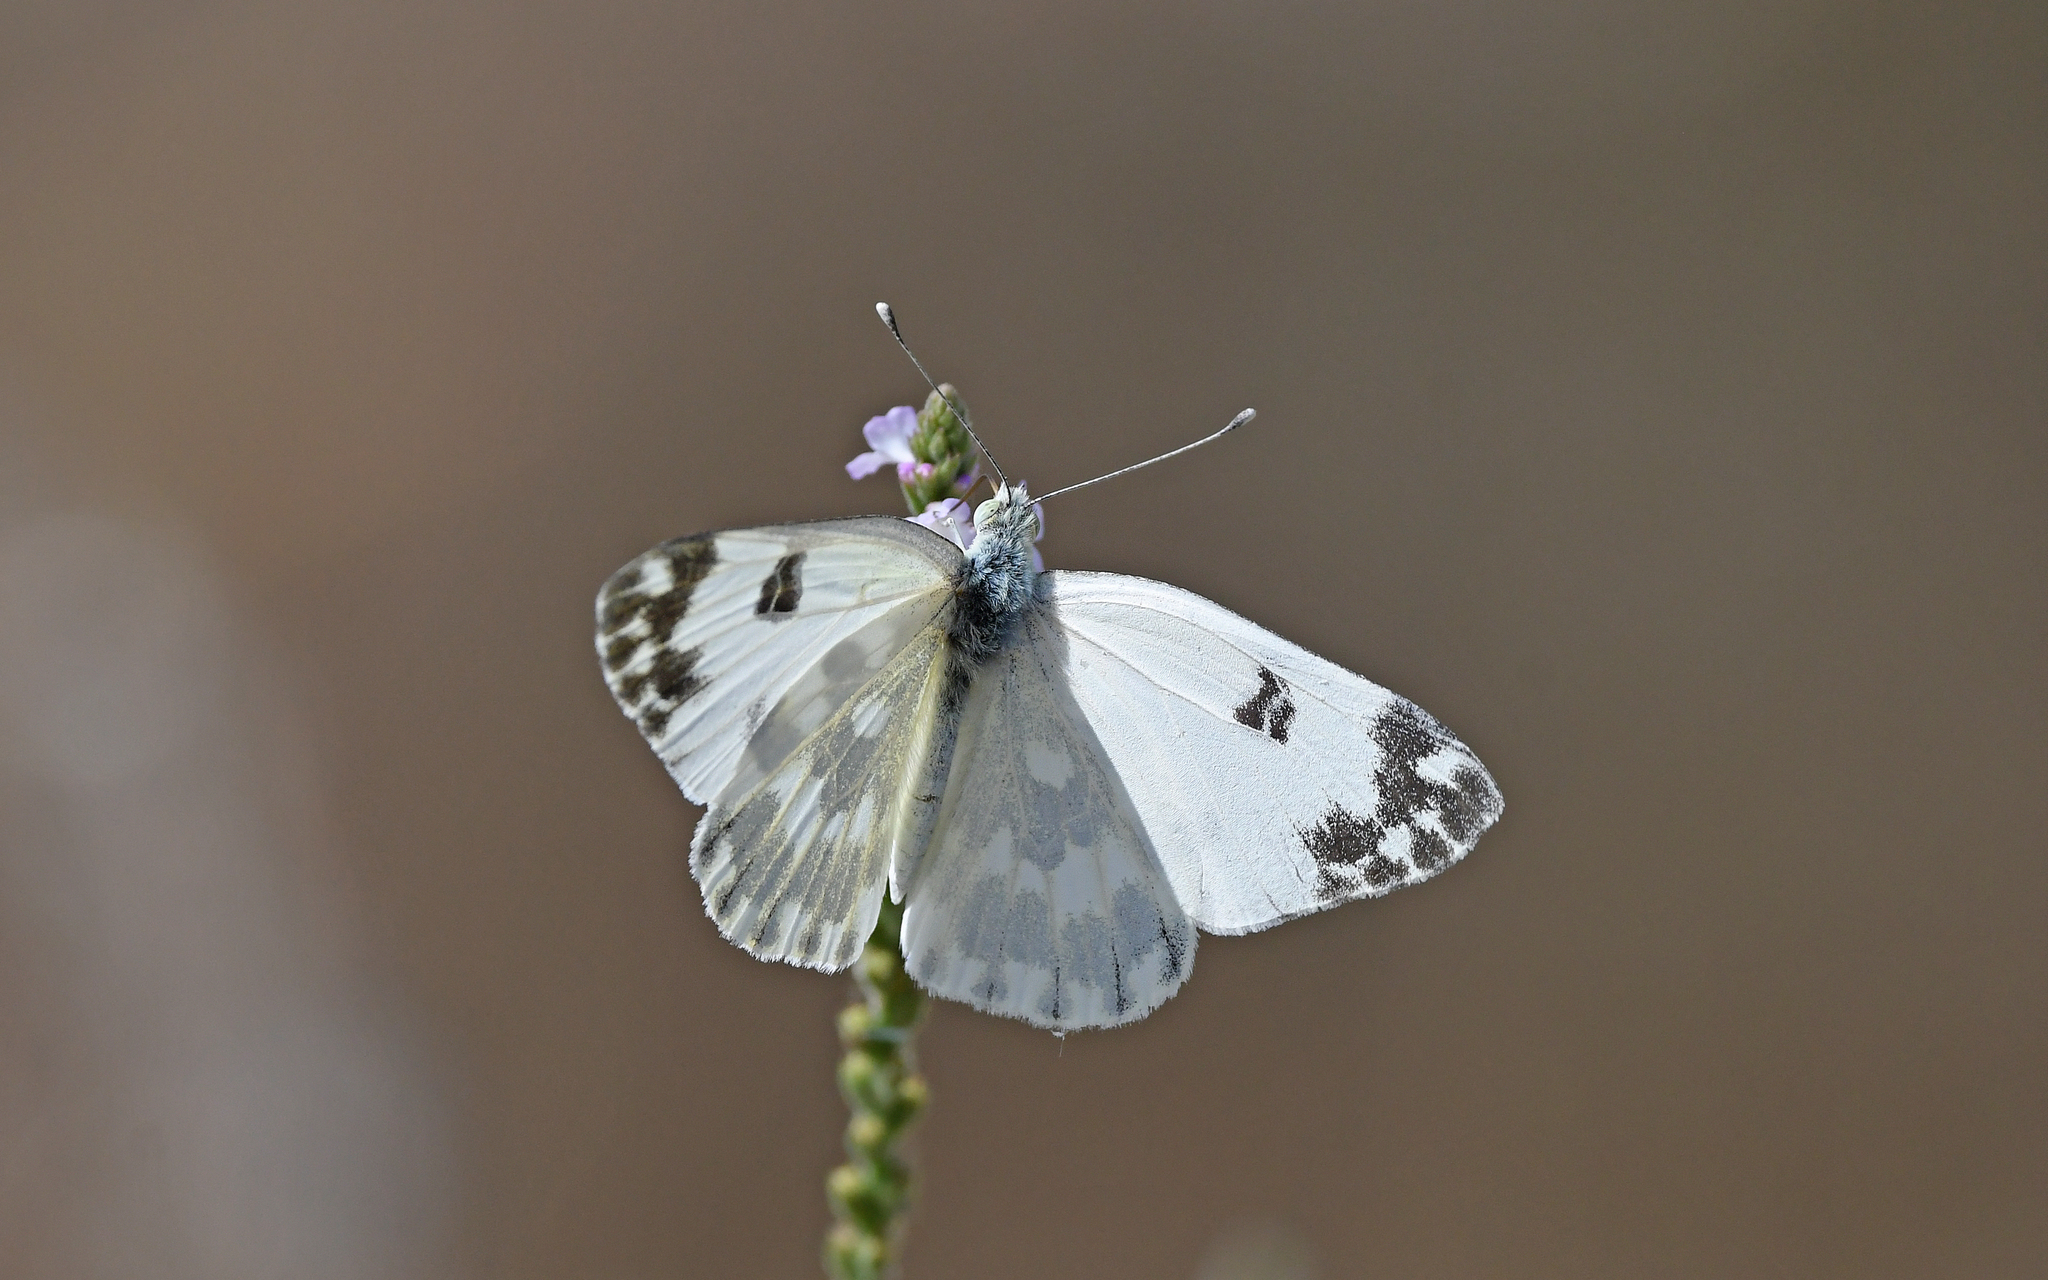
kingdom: Animalia
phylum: Arthropoda
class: Insecta
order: Lepidoptera
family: Pieridae
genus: Pontia
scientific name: Pontia edusa
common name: Eastern bath white
